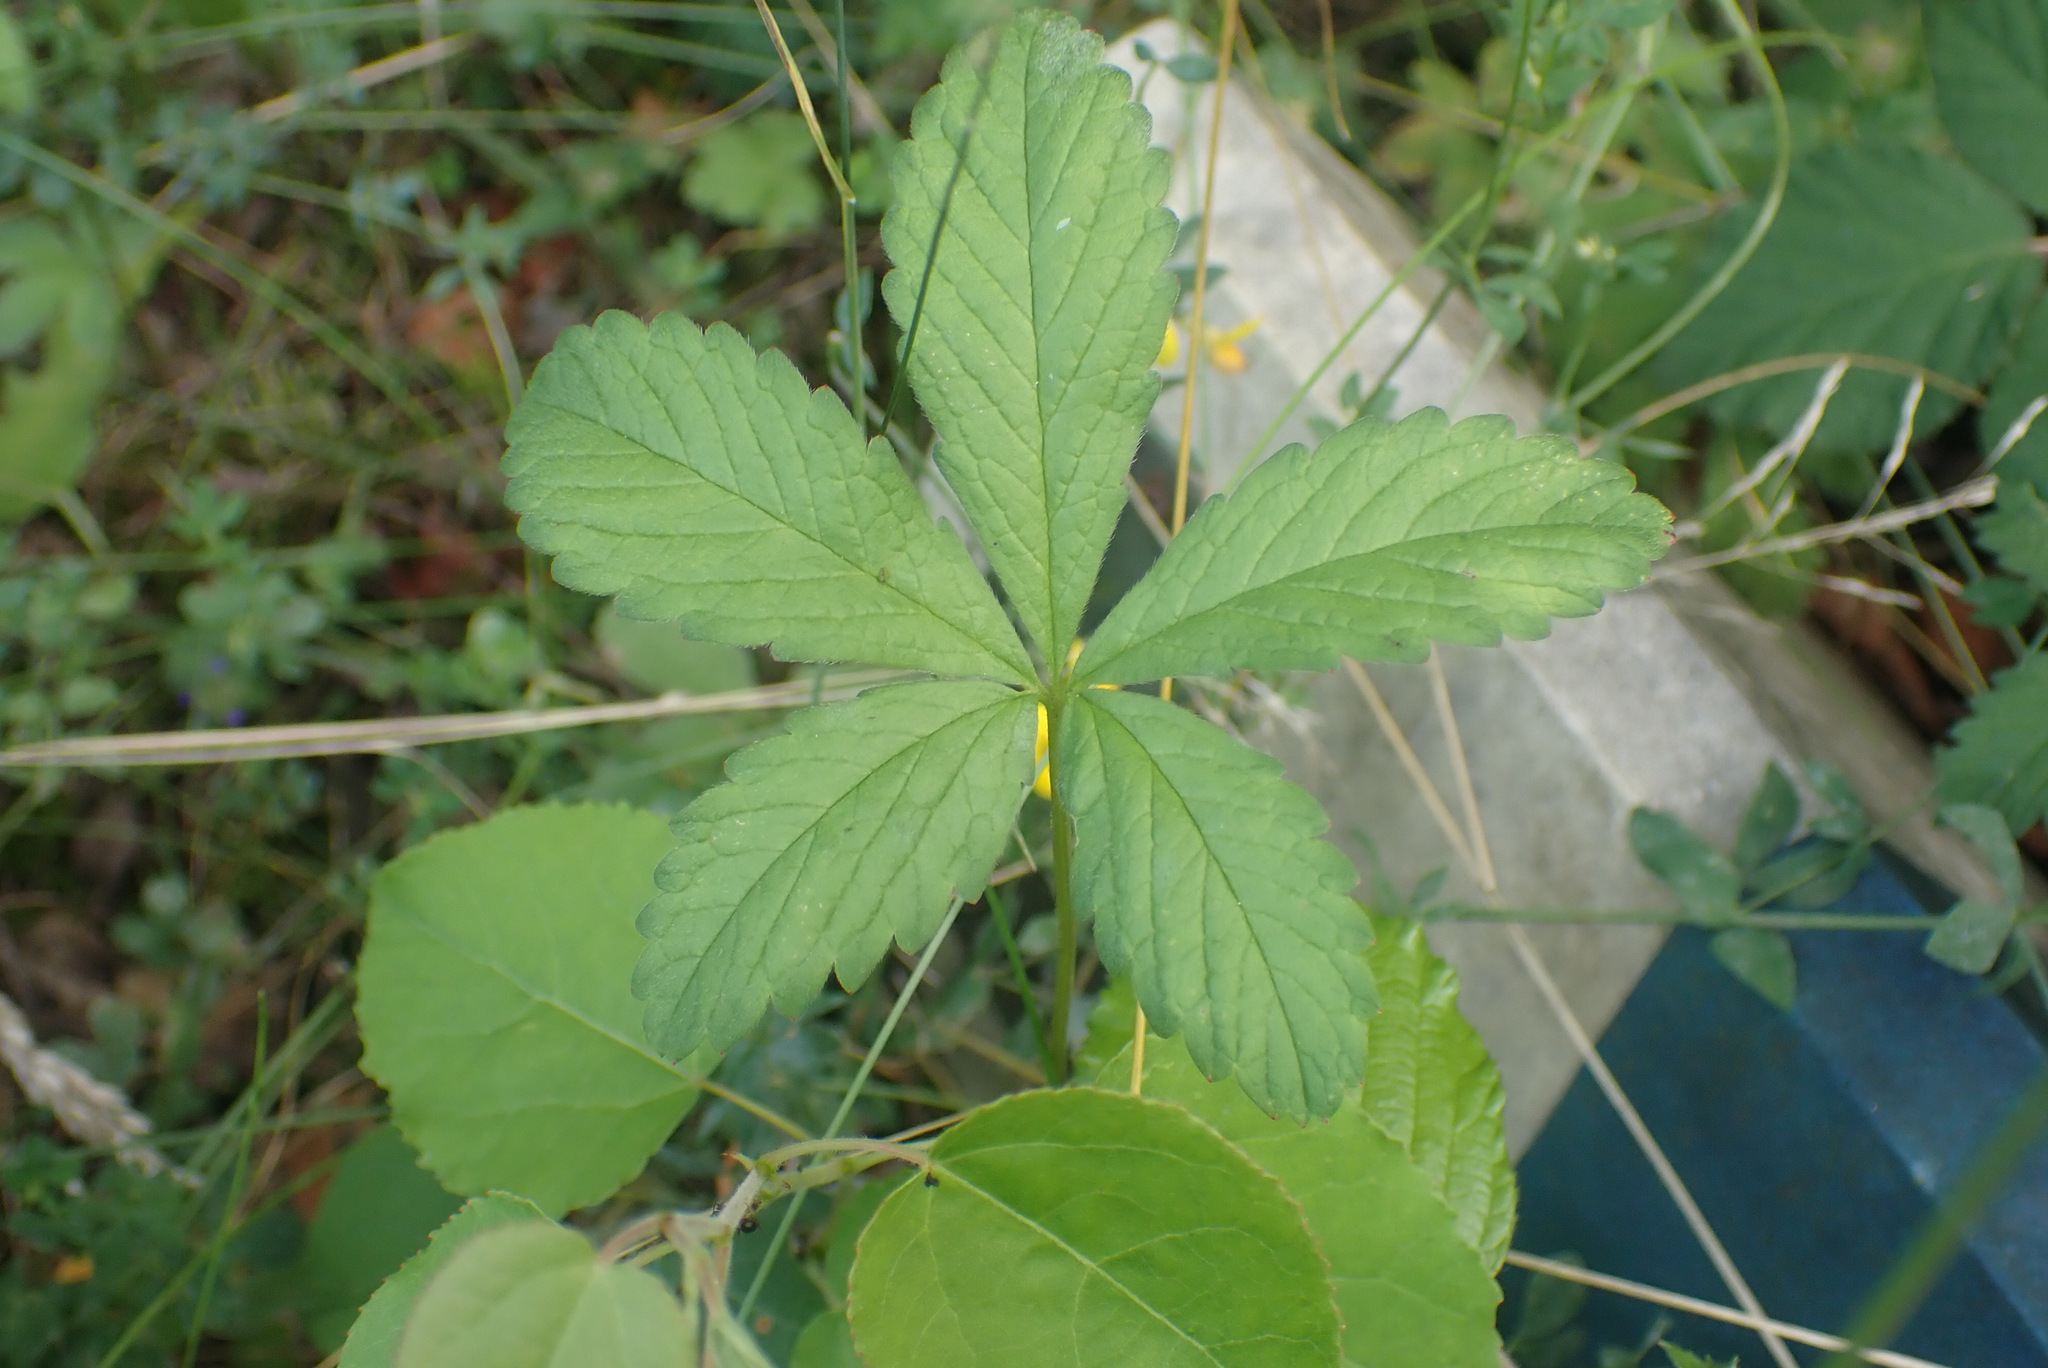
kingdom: Plantae
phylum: Tracheophyta
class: Magnoliopsida
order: Rosales
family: Rosaceae
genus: Potentilla
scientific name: Potentilla reptans
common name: Creeping cinquefoil
